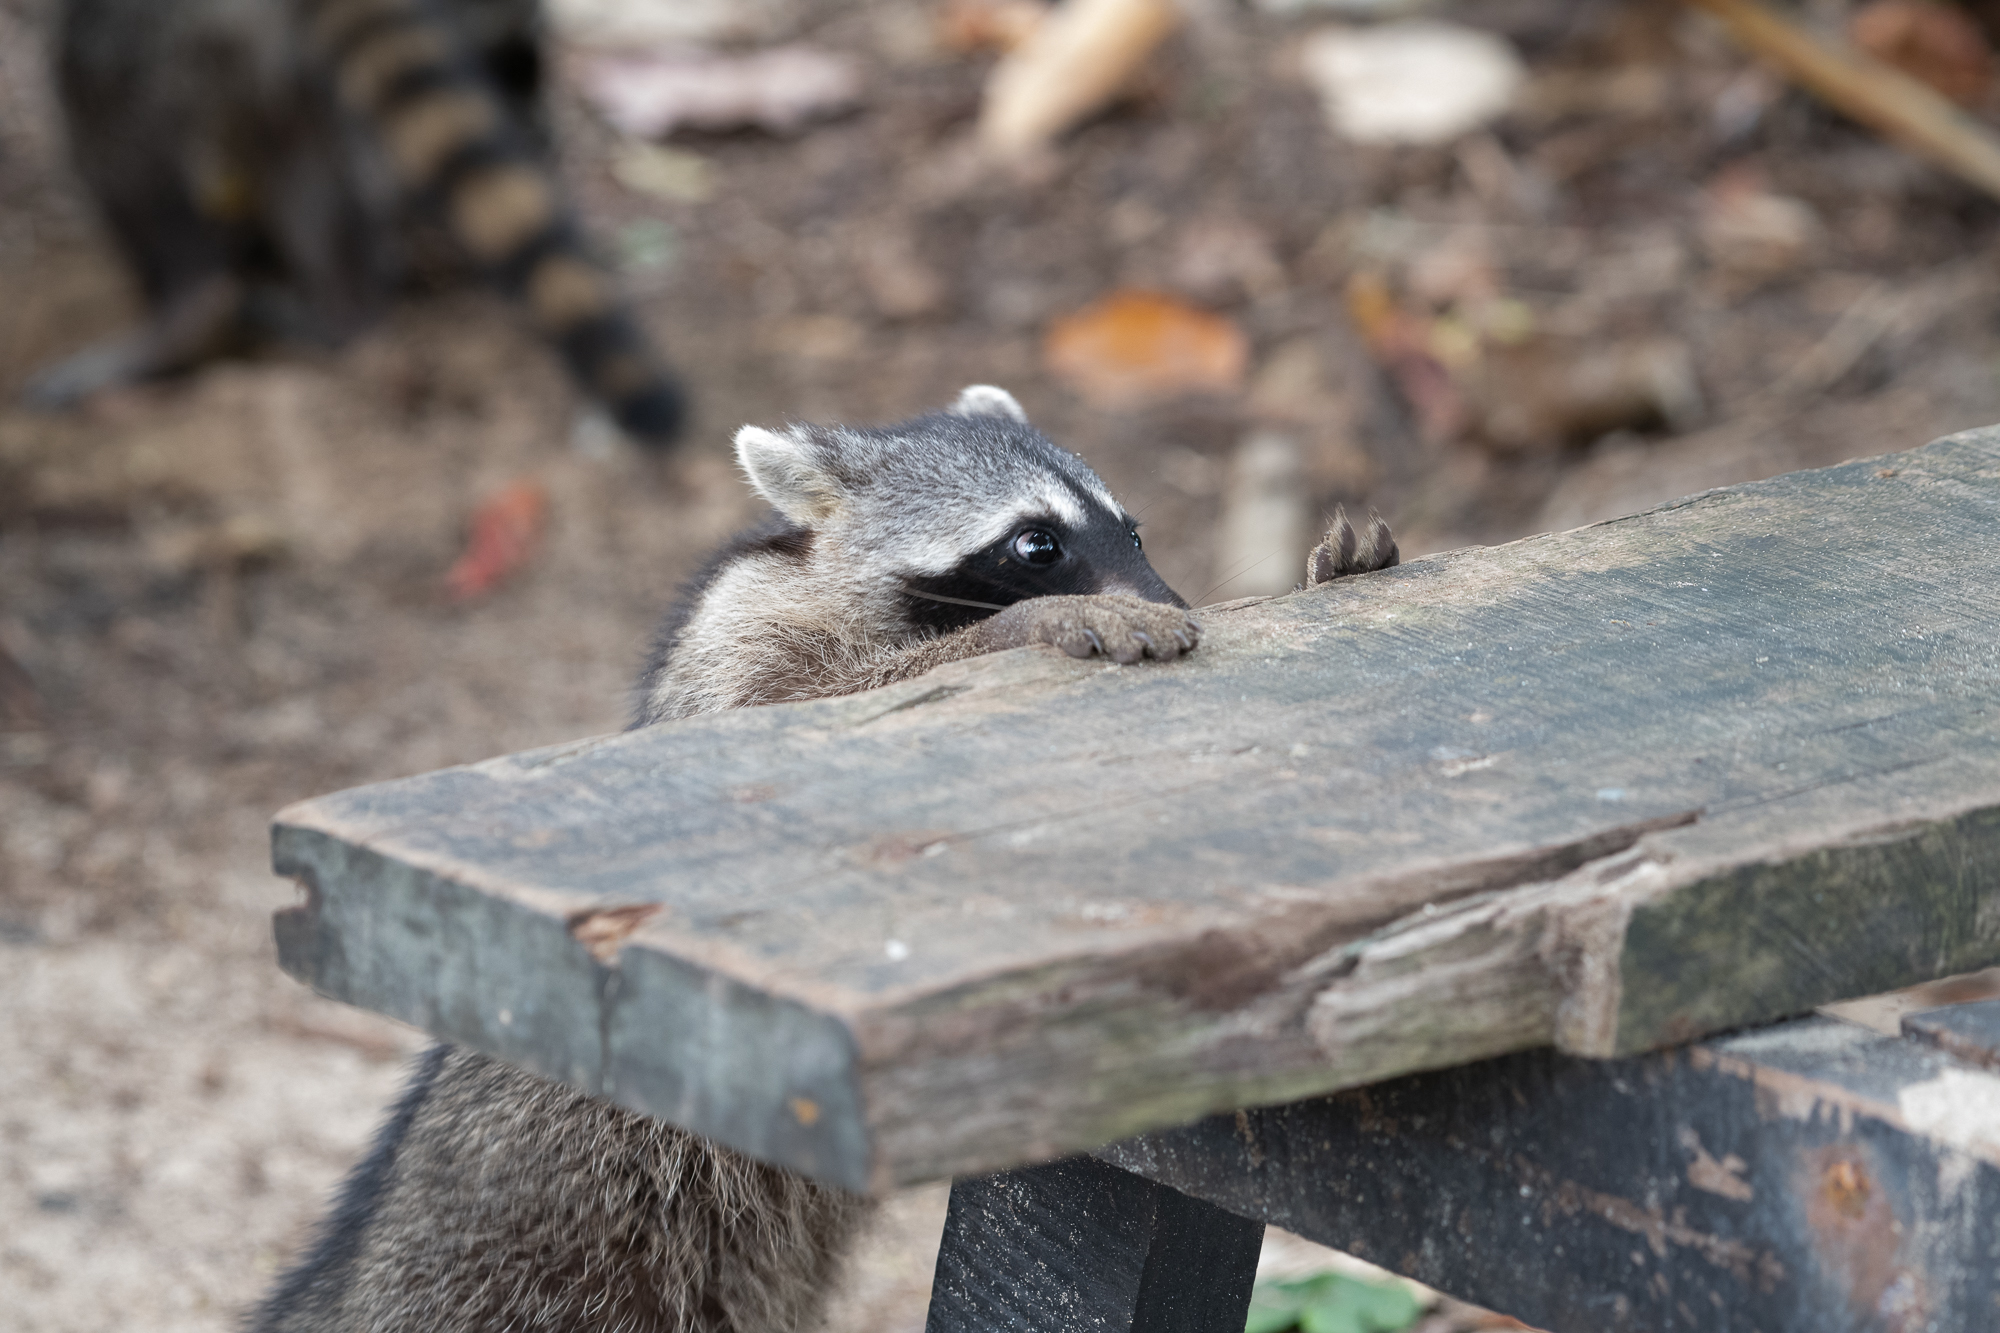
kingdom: Animalia
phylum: Chordata
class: Mammalia
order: Carnivora
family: Procyonidae
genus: Procyon
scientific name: Procyon lotor
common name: Raccoon
